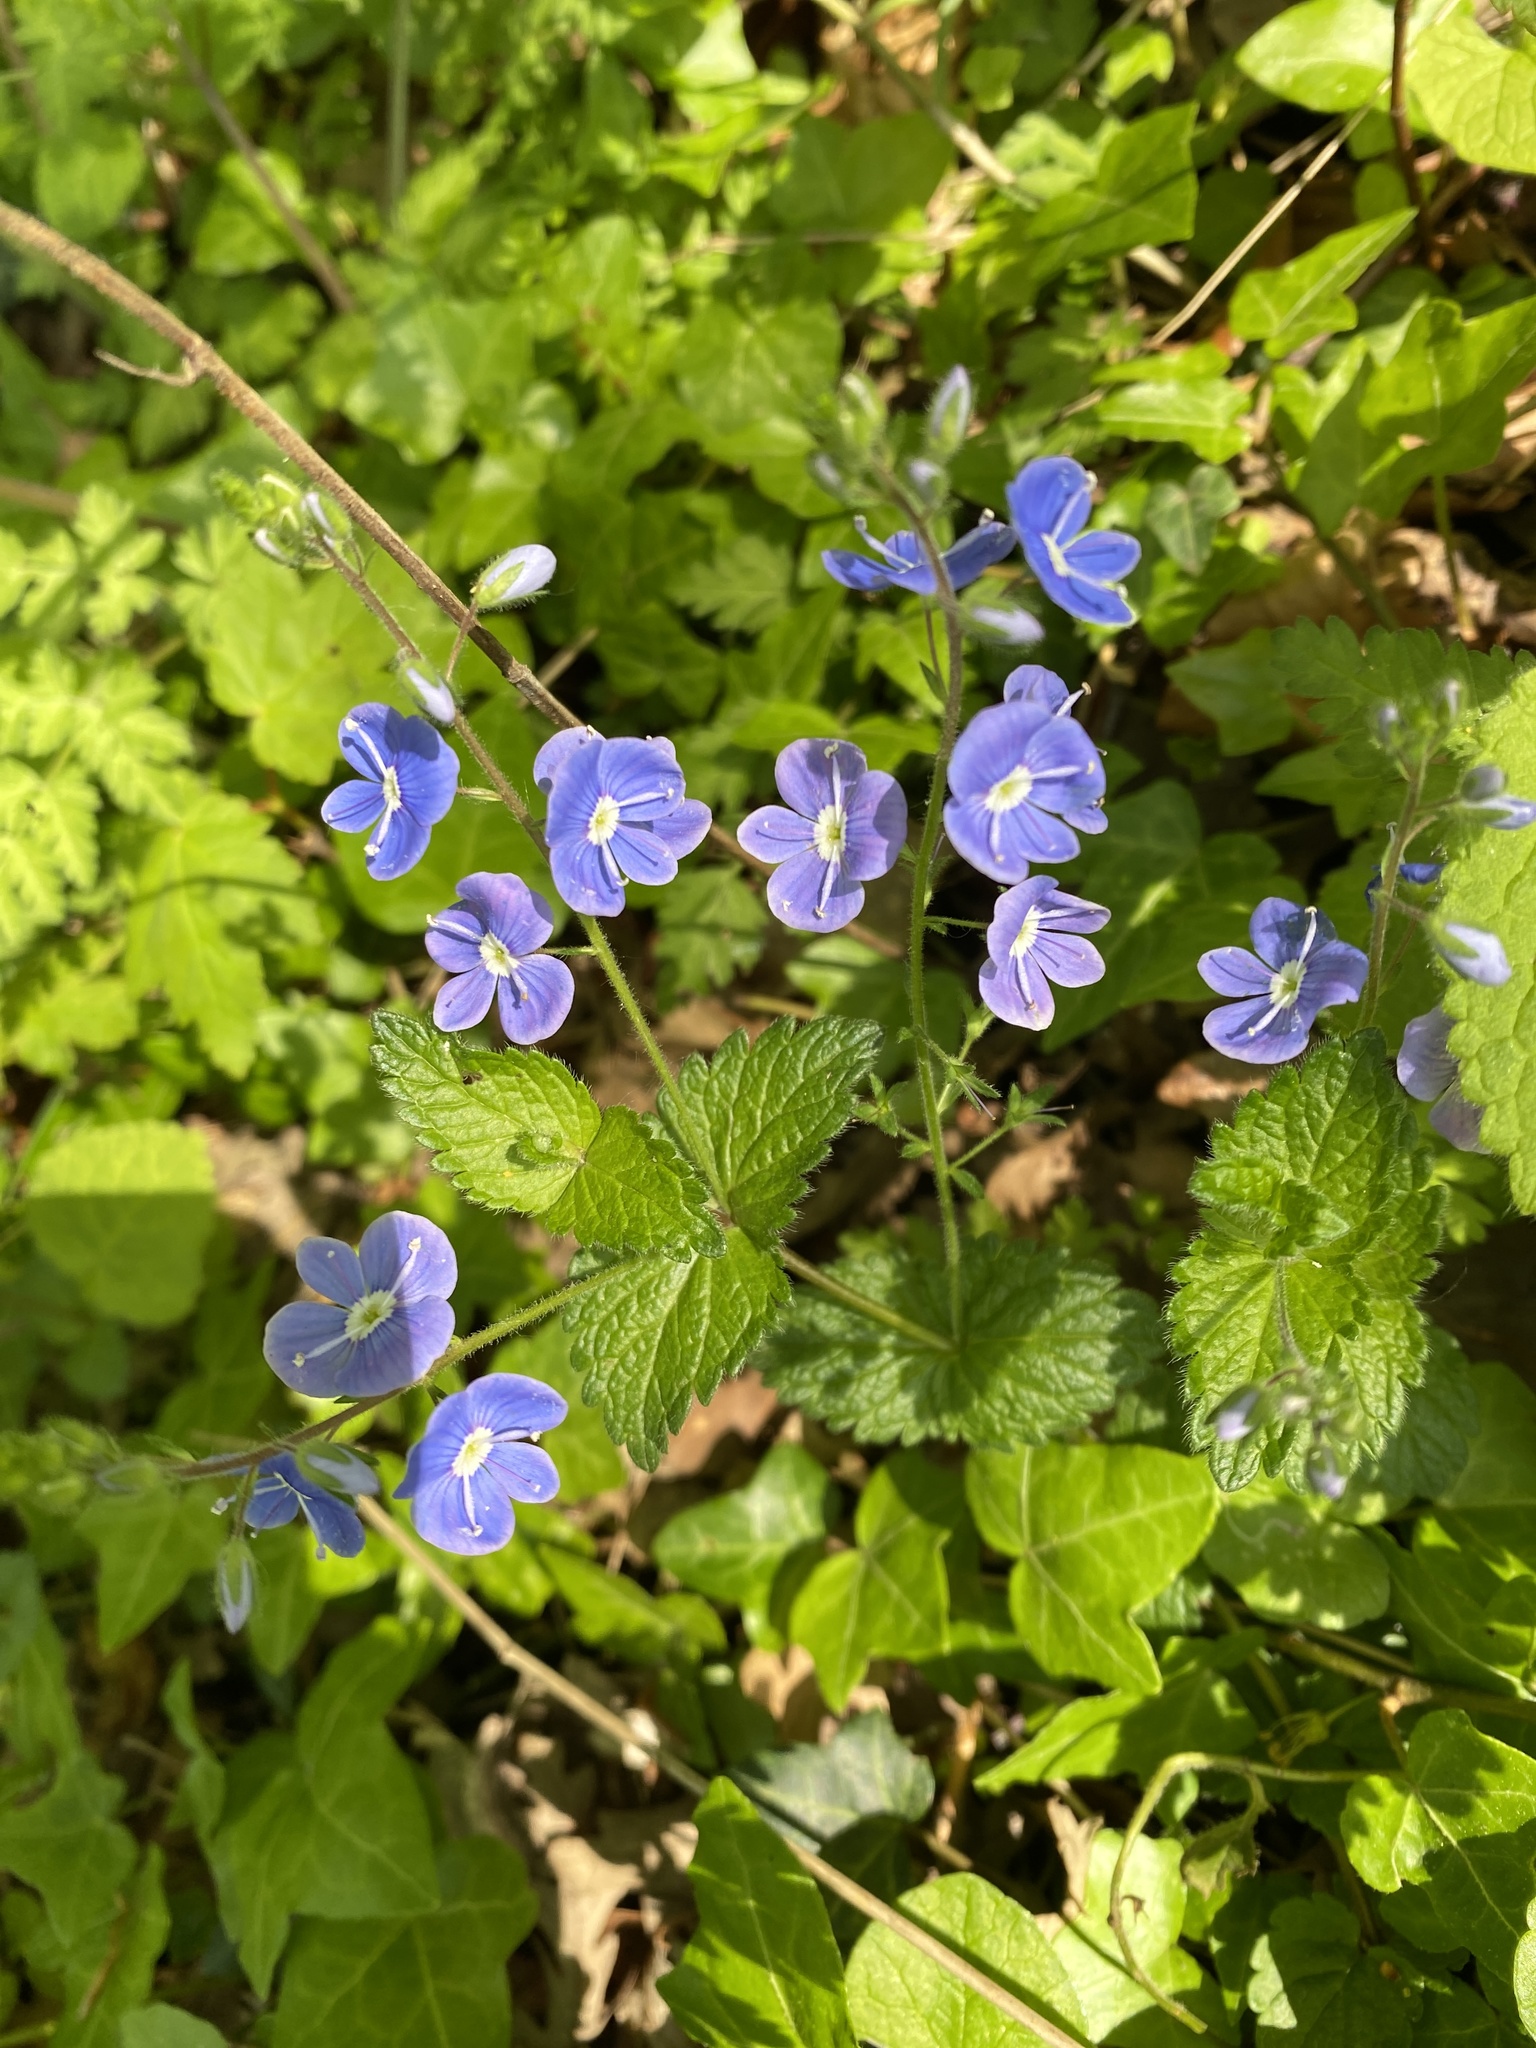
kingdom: Plantae
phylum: Tracheophyta
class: Magnoliopsida
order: Lamiales
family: Plantaginaceae
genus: Veronica
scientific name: Veronica chamaedrys
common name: Germander speedwell
